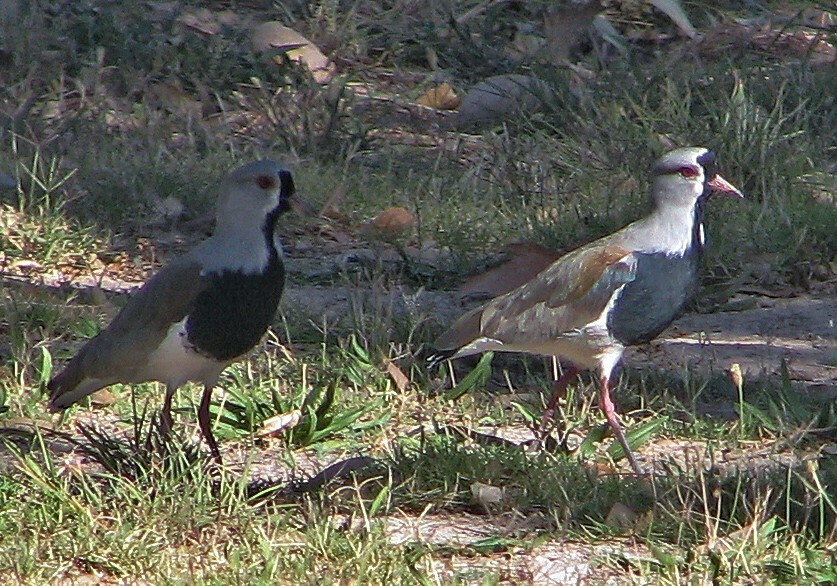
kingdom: Animalia
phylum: Chordata
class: Aves
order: Charadriiformes
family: Charadriidae
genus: Vanellus
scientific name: Vanellus chilensis
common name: Southern lapwing
